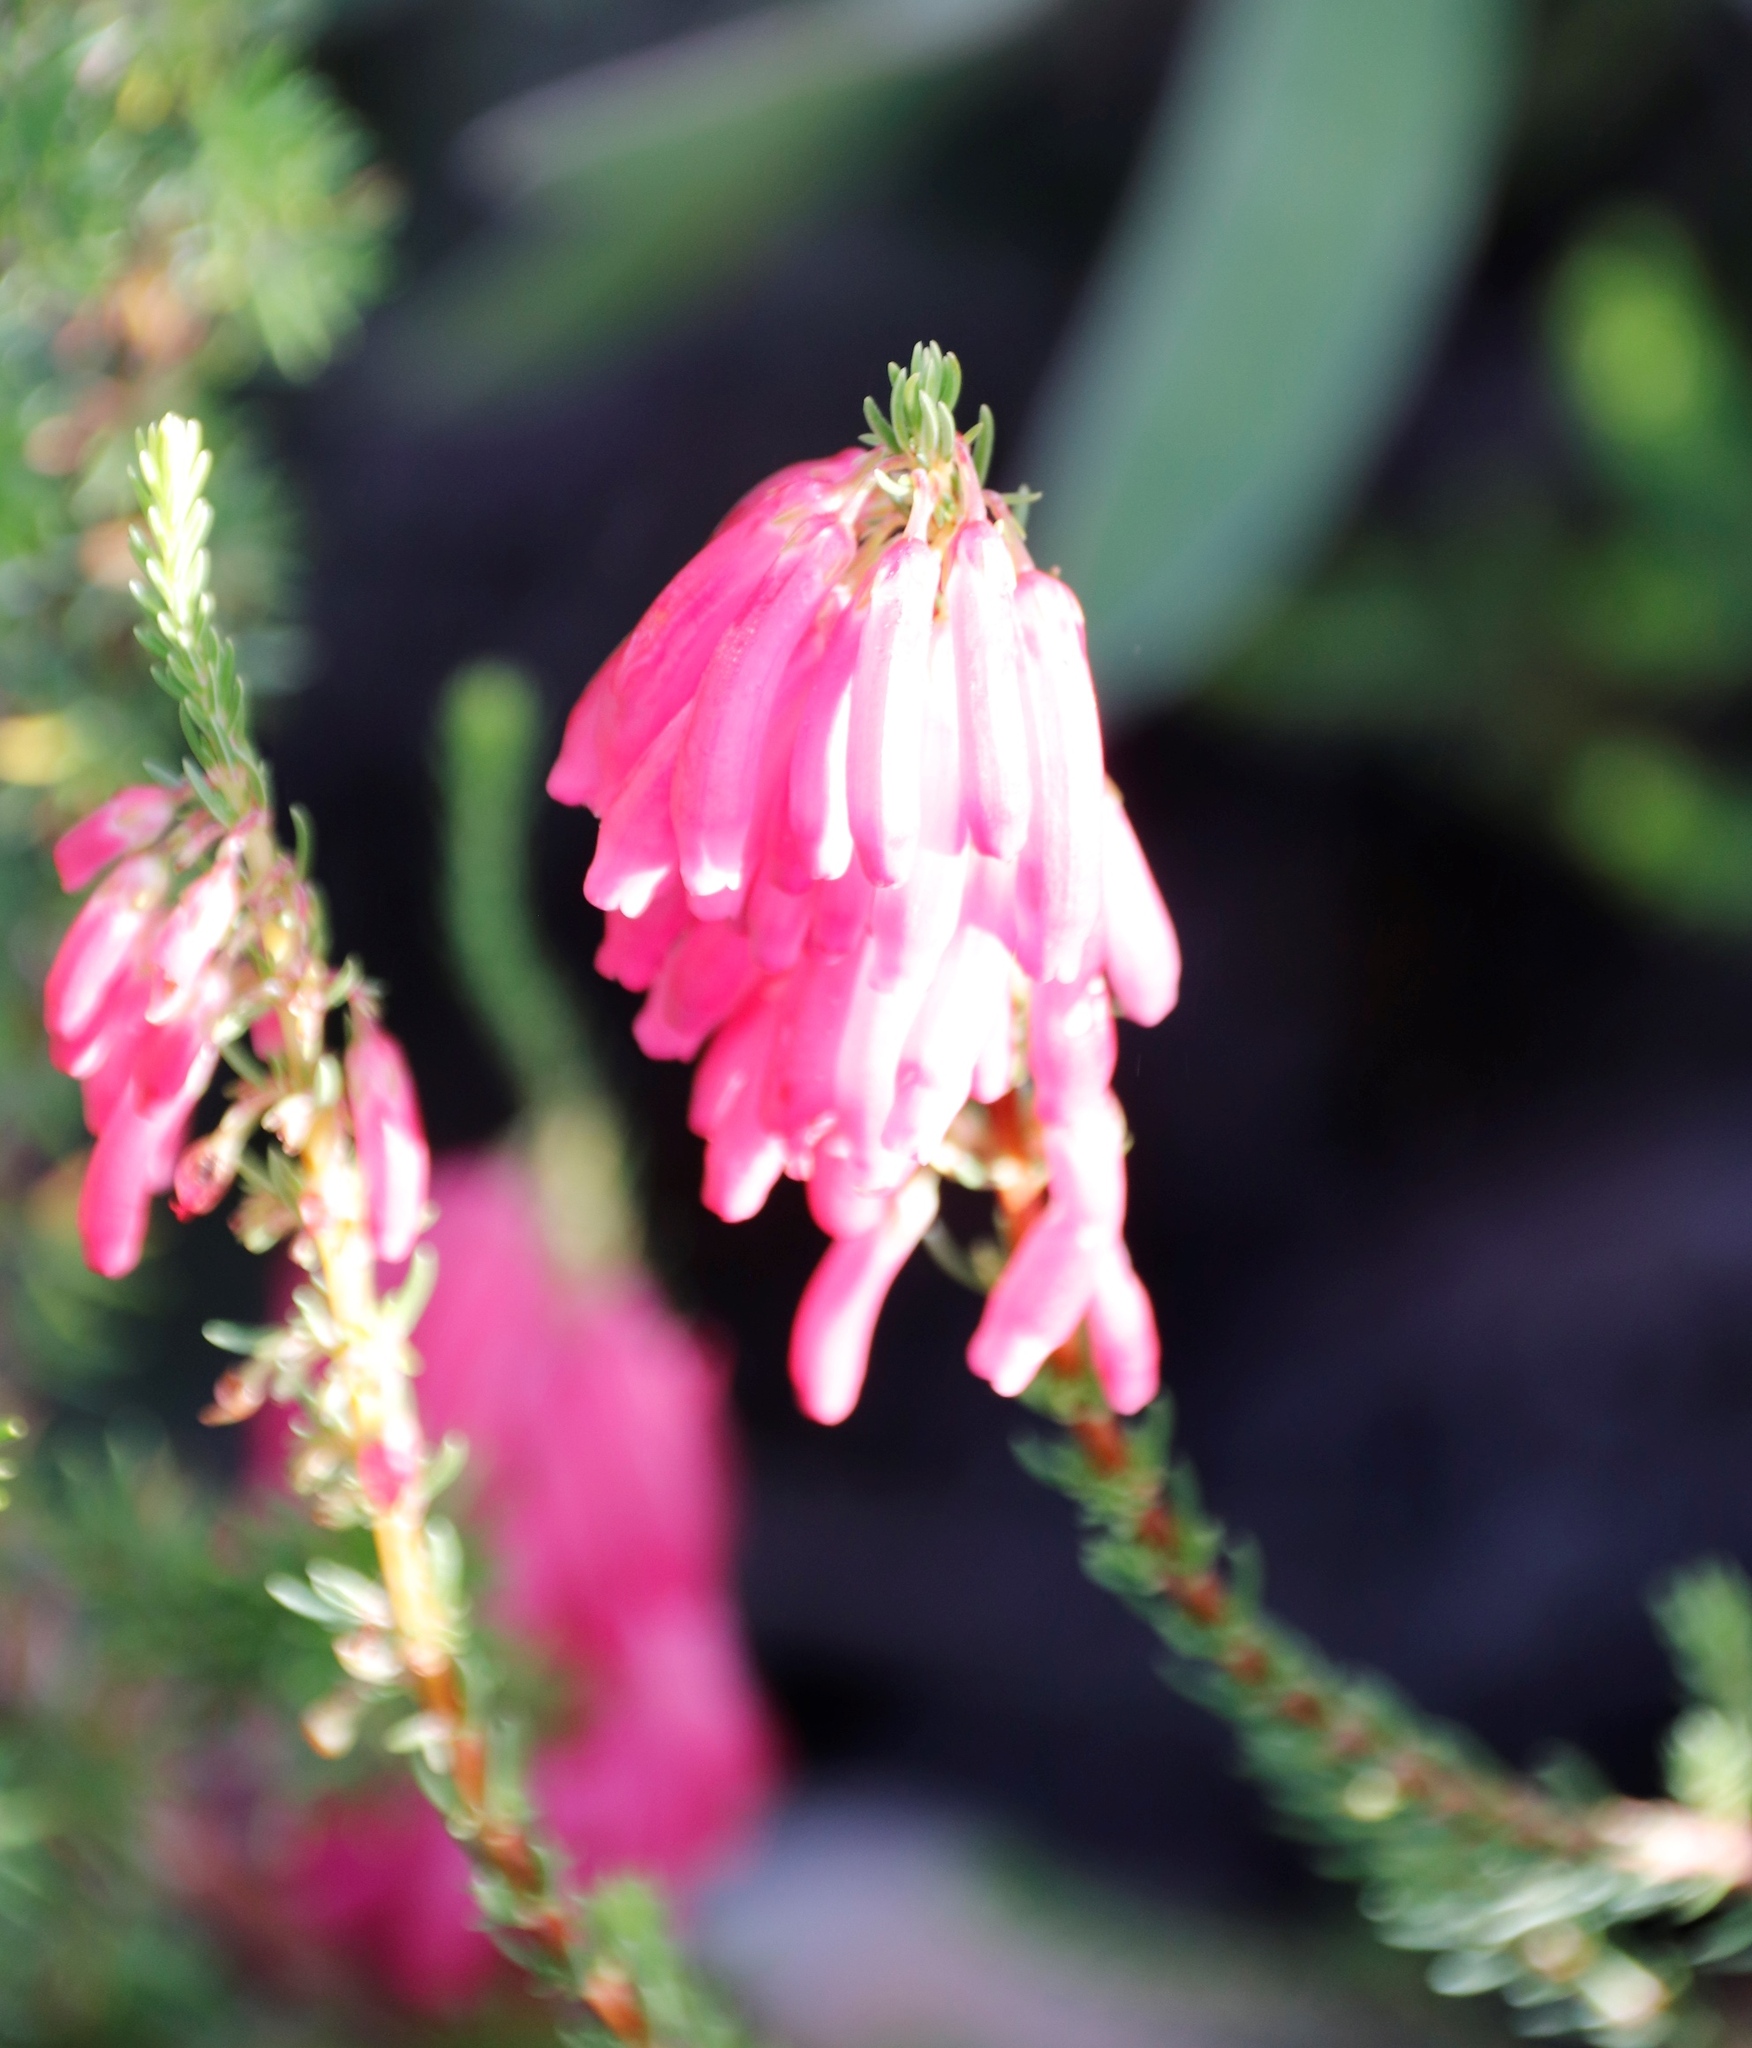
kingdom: Plantae
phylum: Tracheophyta
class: Magnoliopsida
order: Ericales
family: Ericaceae
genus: Erica
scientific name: Erica mammosa
